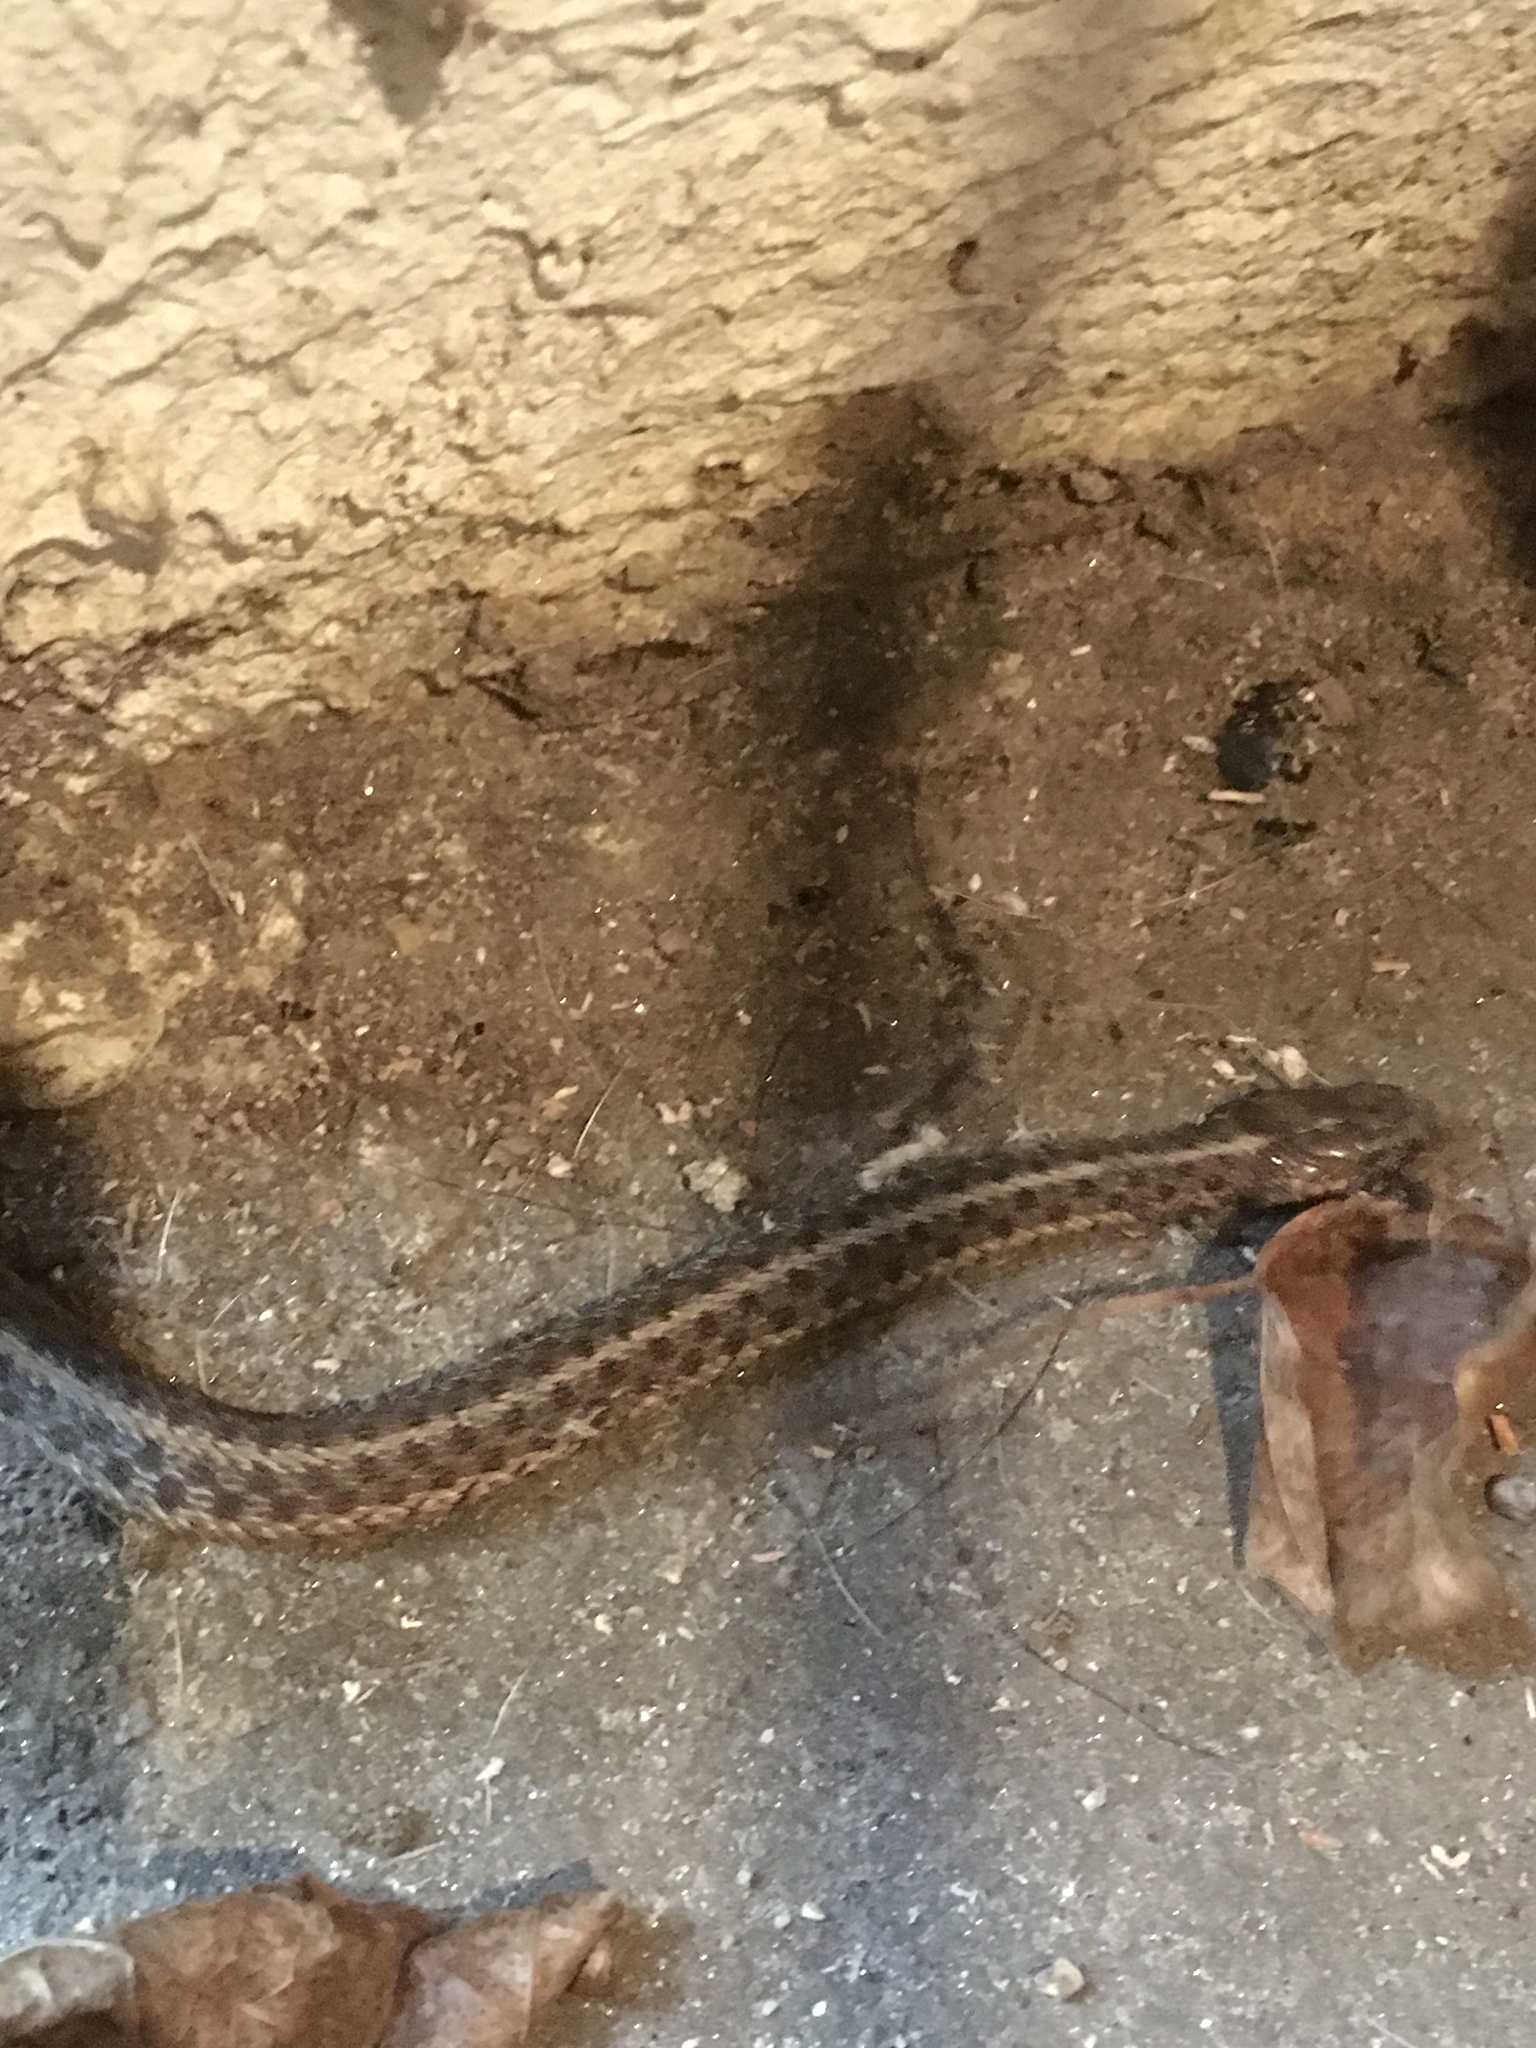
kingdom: Animalia
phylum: Chordata
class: Squamata
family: Colubridae
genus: Thamnophis
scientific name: Thamnophis sirtalis
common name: Common garter snake
